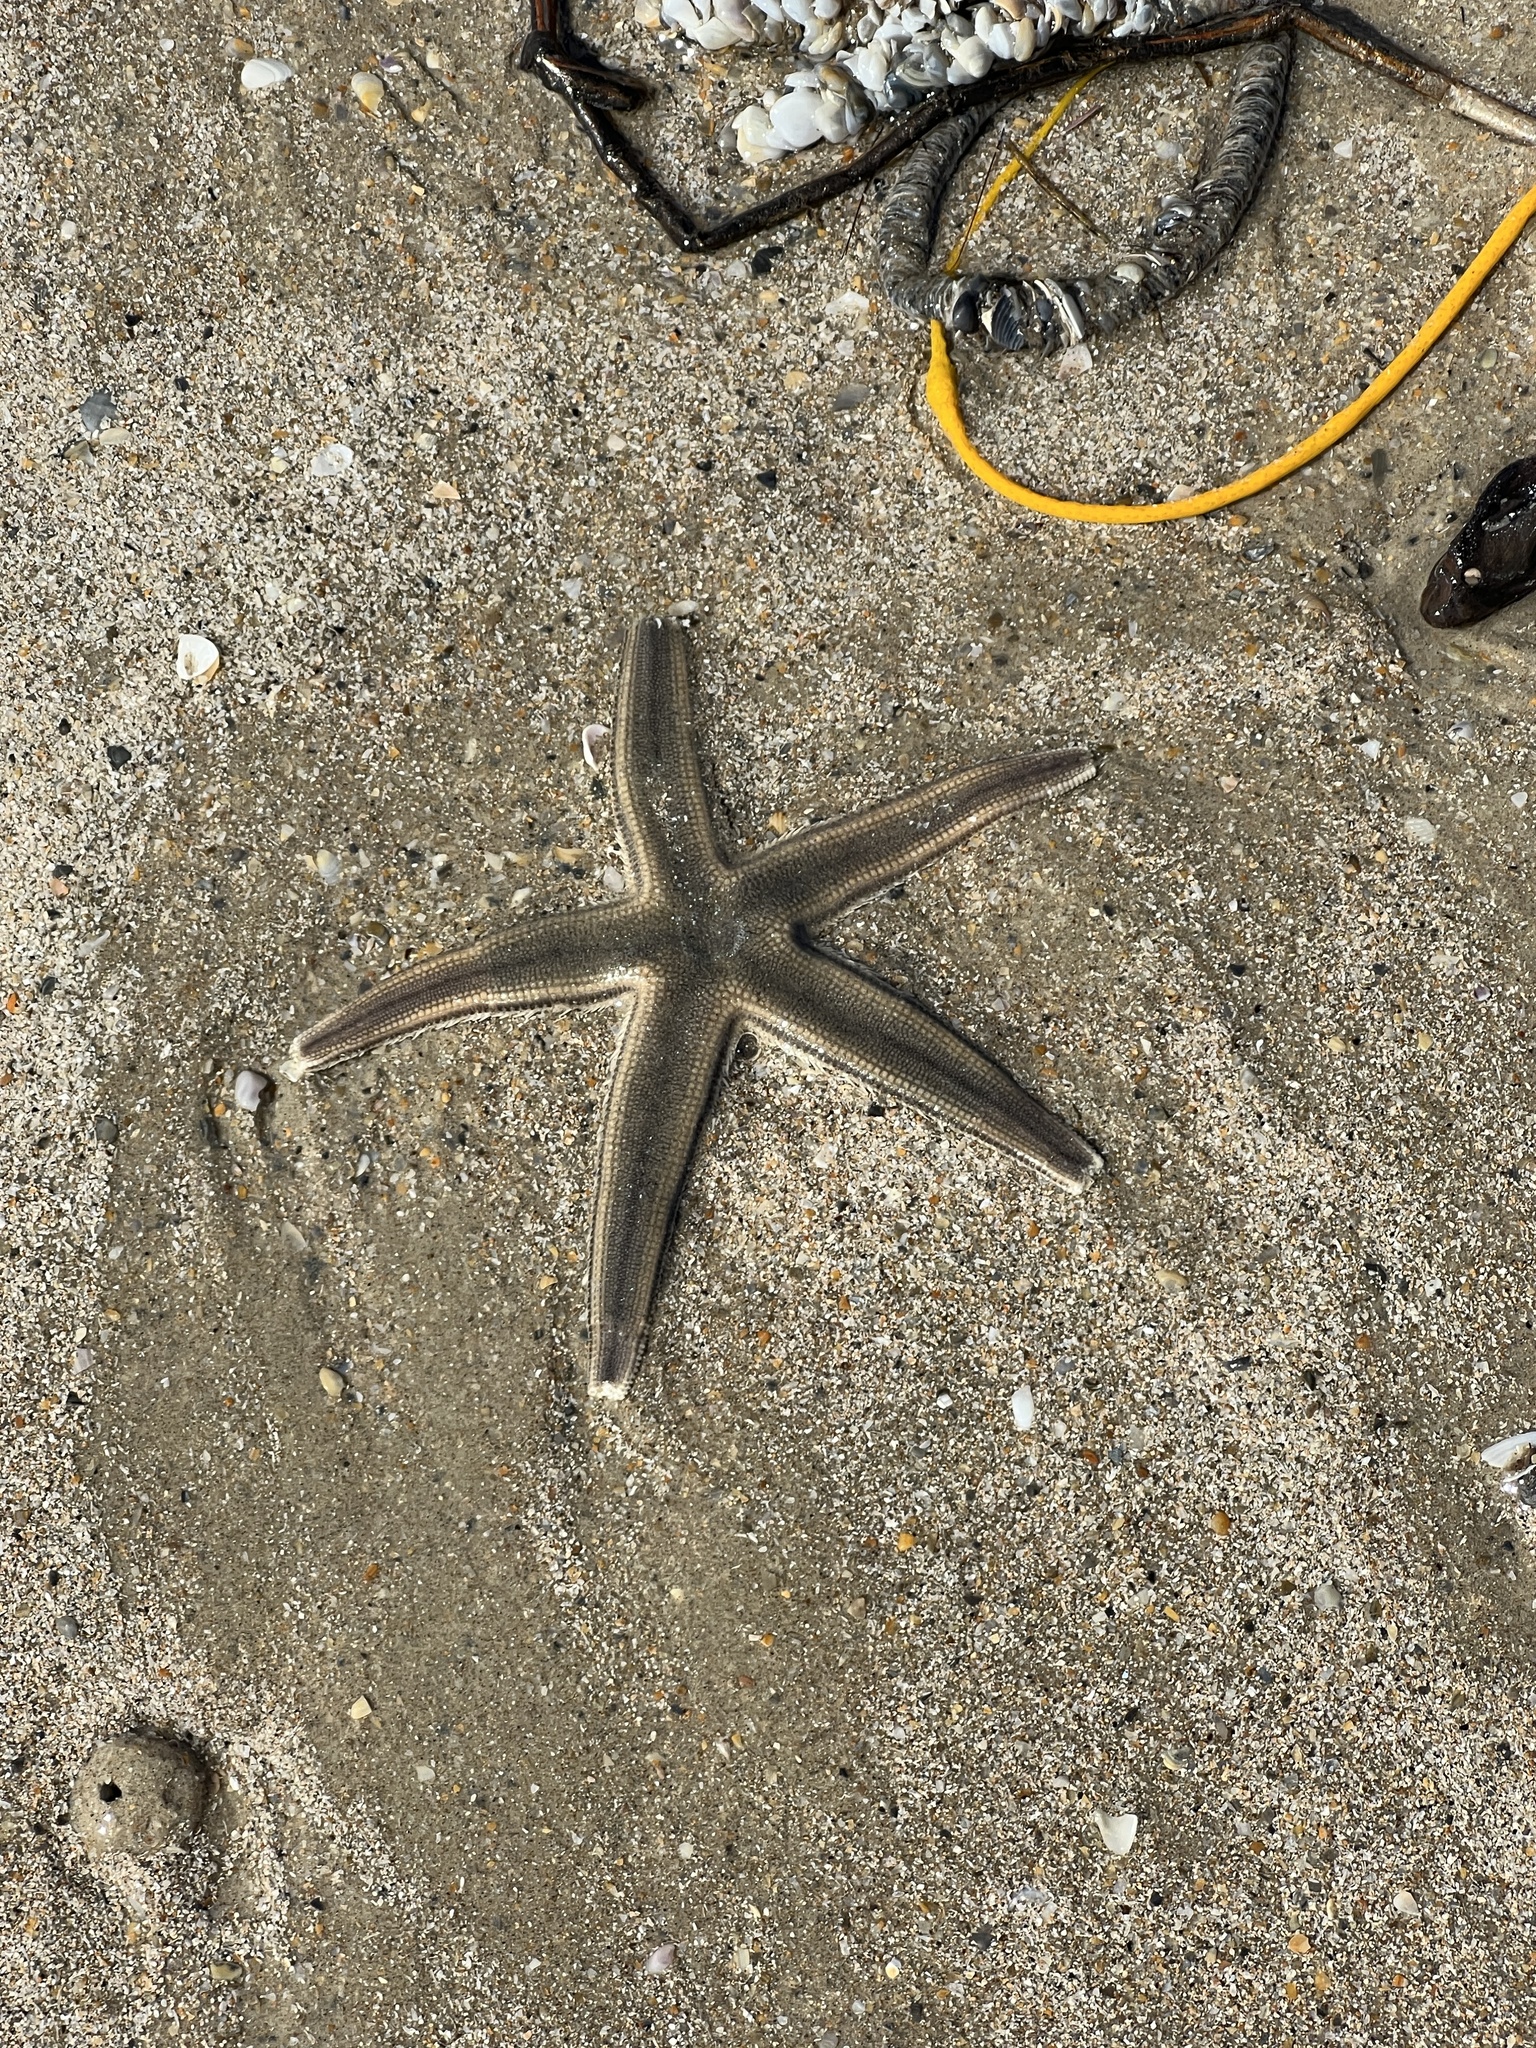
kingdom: Animalia
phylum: Echinodermata
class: Asteroidea
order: Paxillosida
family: Luidiidae
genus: Luidia
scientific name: Luidia clathrata
